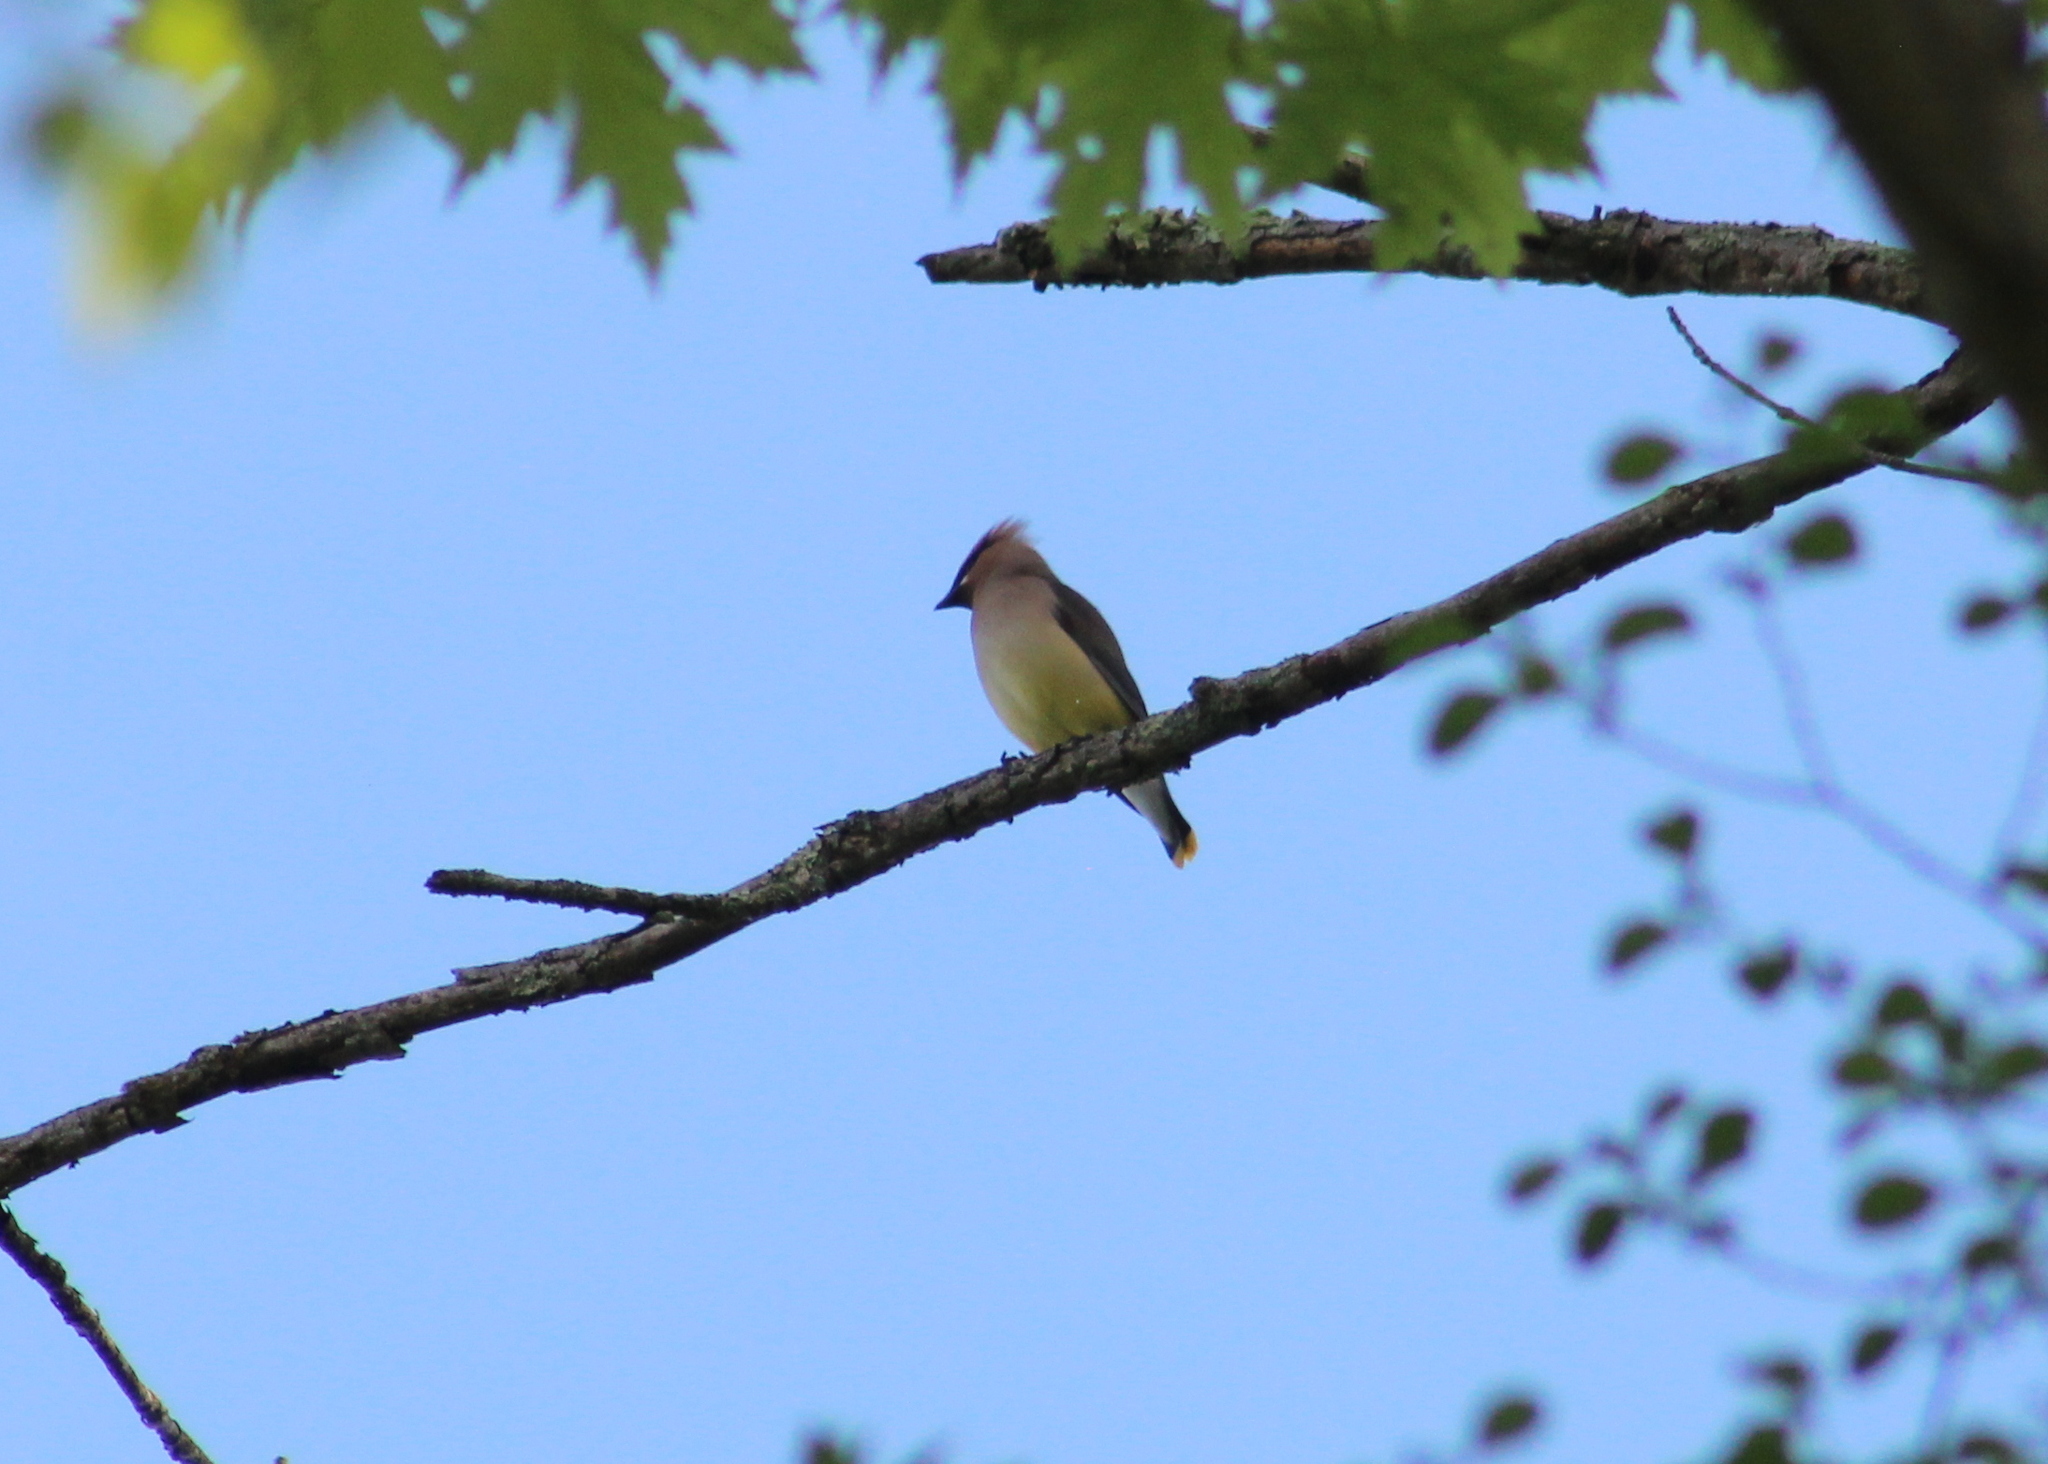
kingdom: Animalia
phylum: Chordata
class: Aves
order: Passeriformes
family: Bombycillidae
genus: Bombycilla
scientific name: Bombycilla cedrorum
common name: Cedar waxwing
